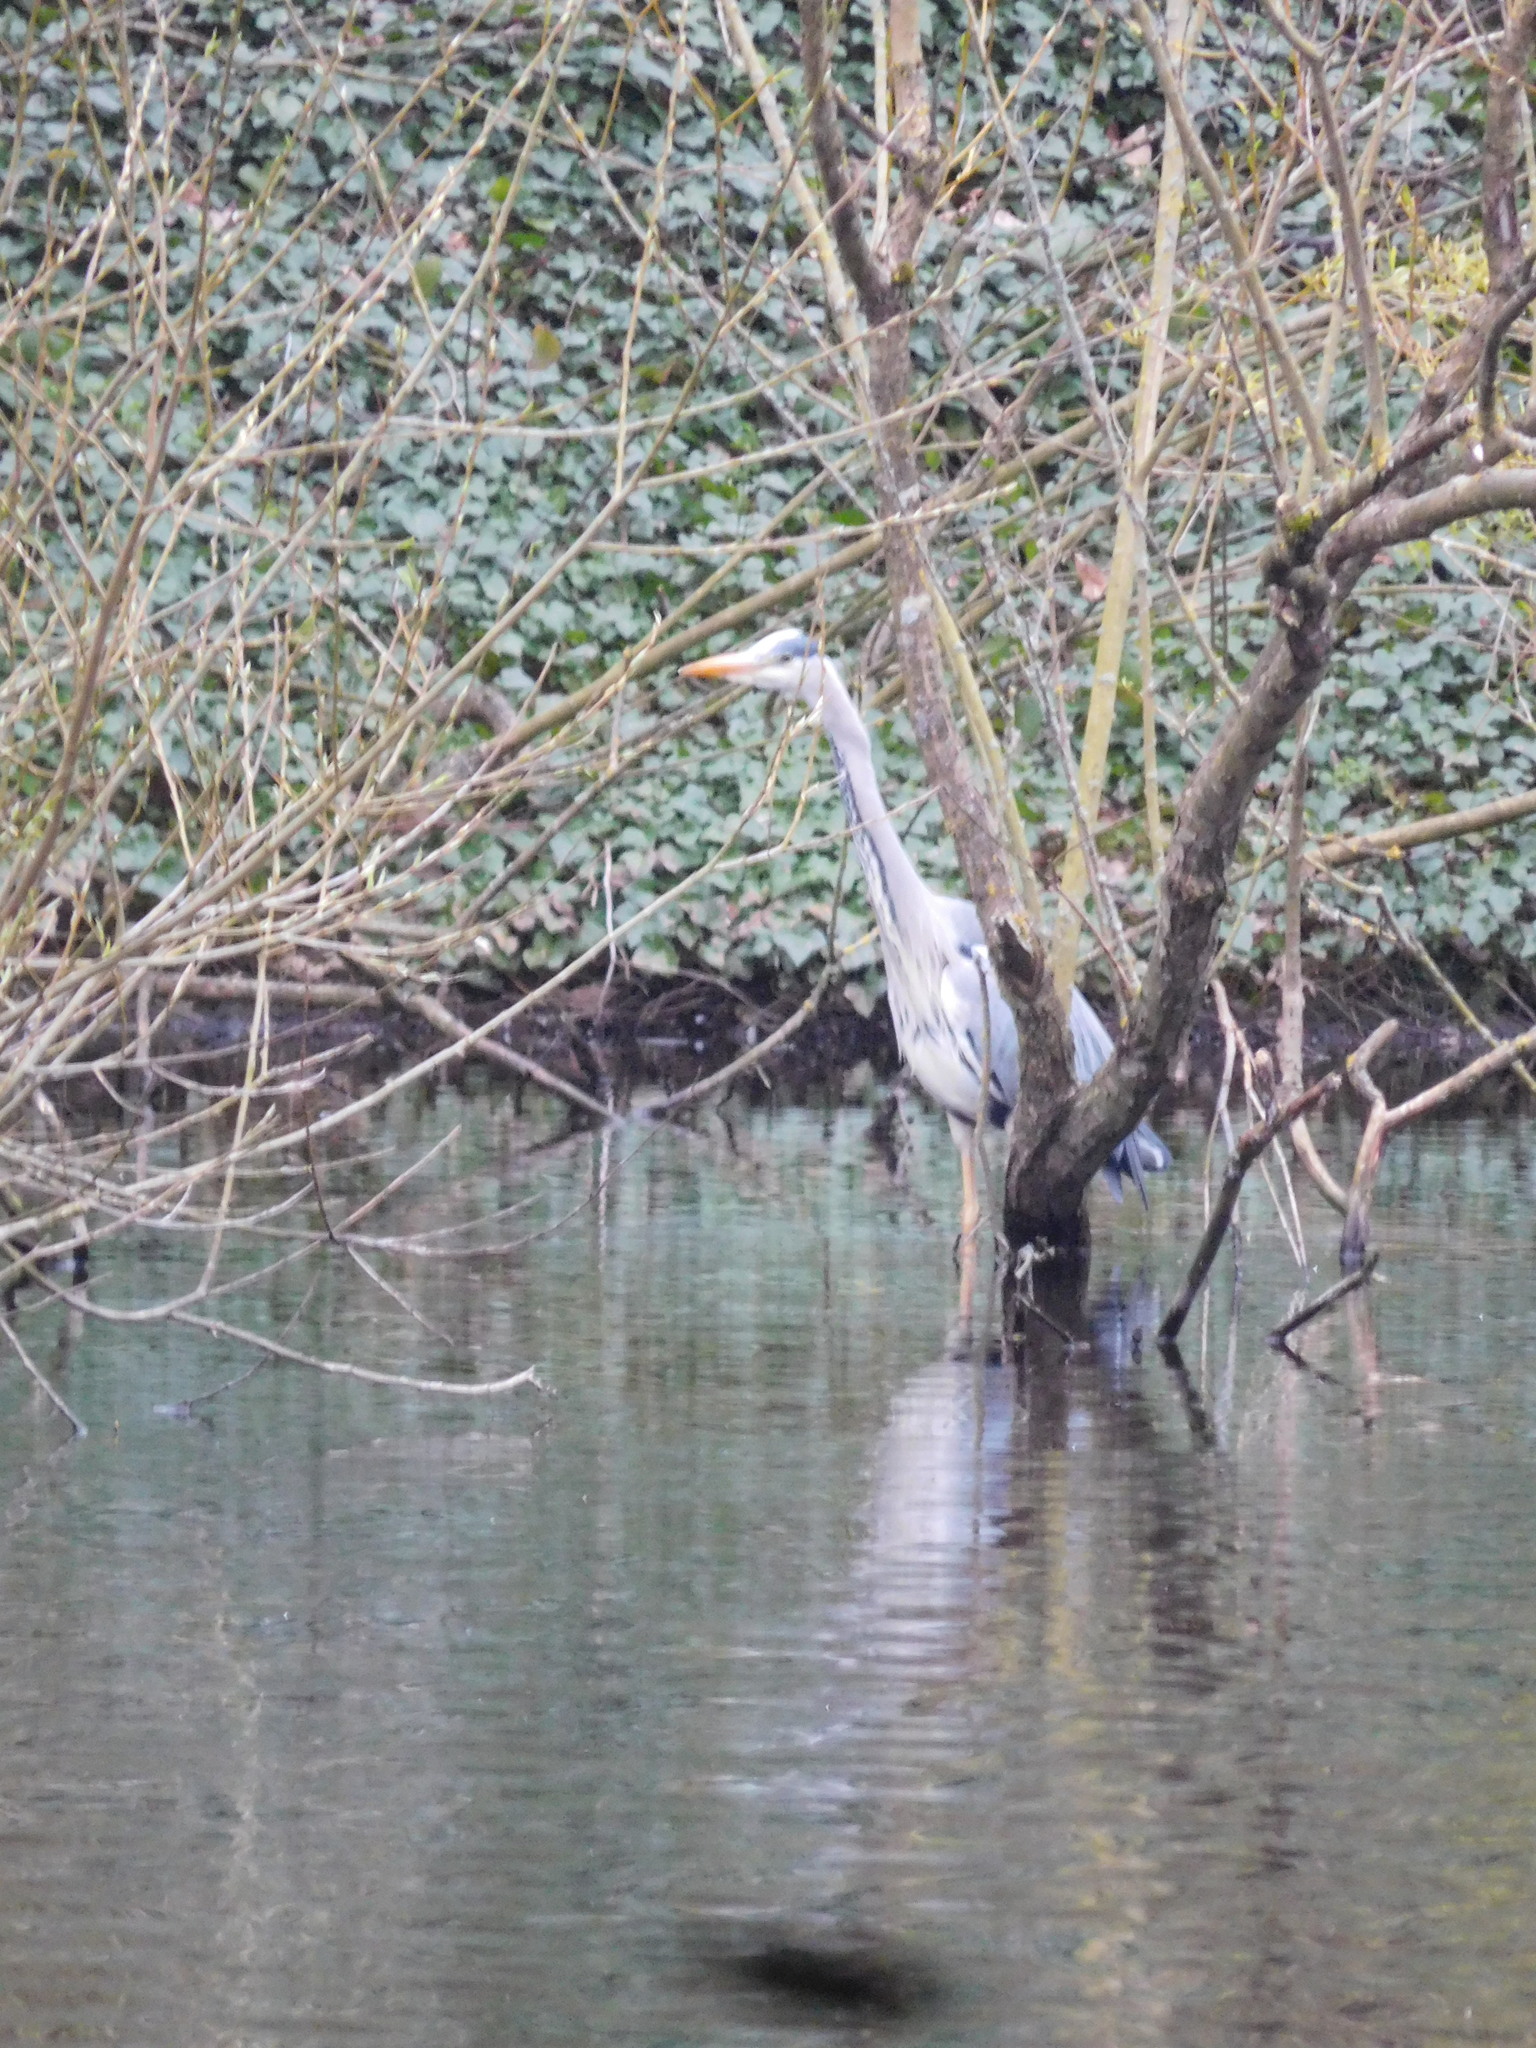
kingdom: Animalia
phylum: Chordata
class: Aves
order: Pelecaniformes
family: Ardeidae
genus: Ardea
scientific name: Ardea cinerea
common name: Grey heron
